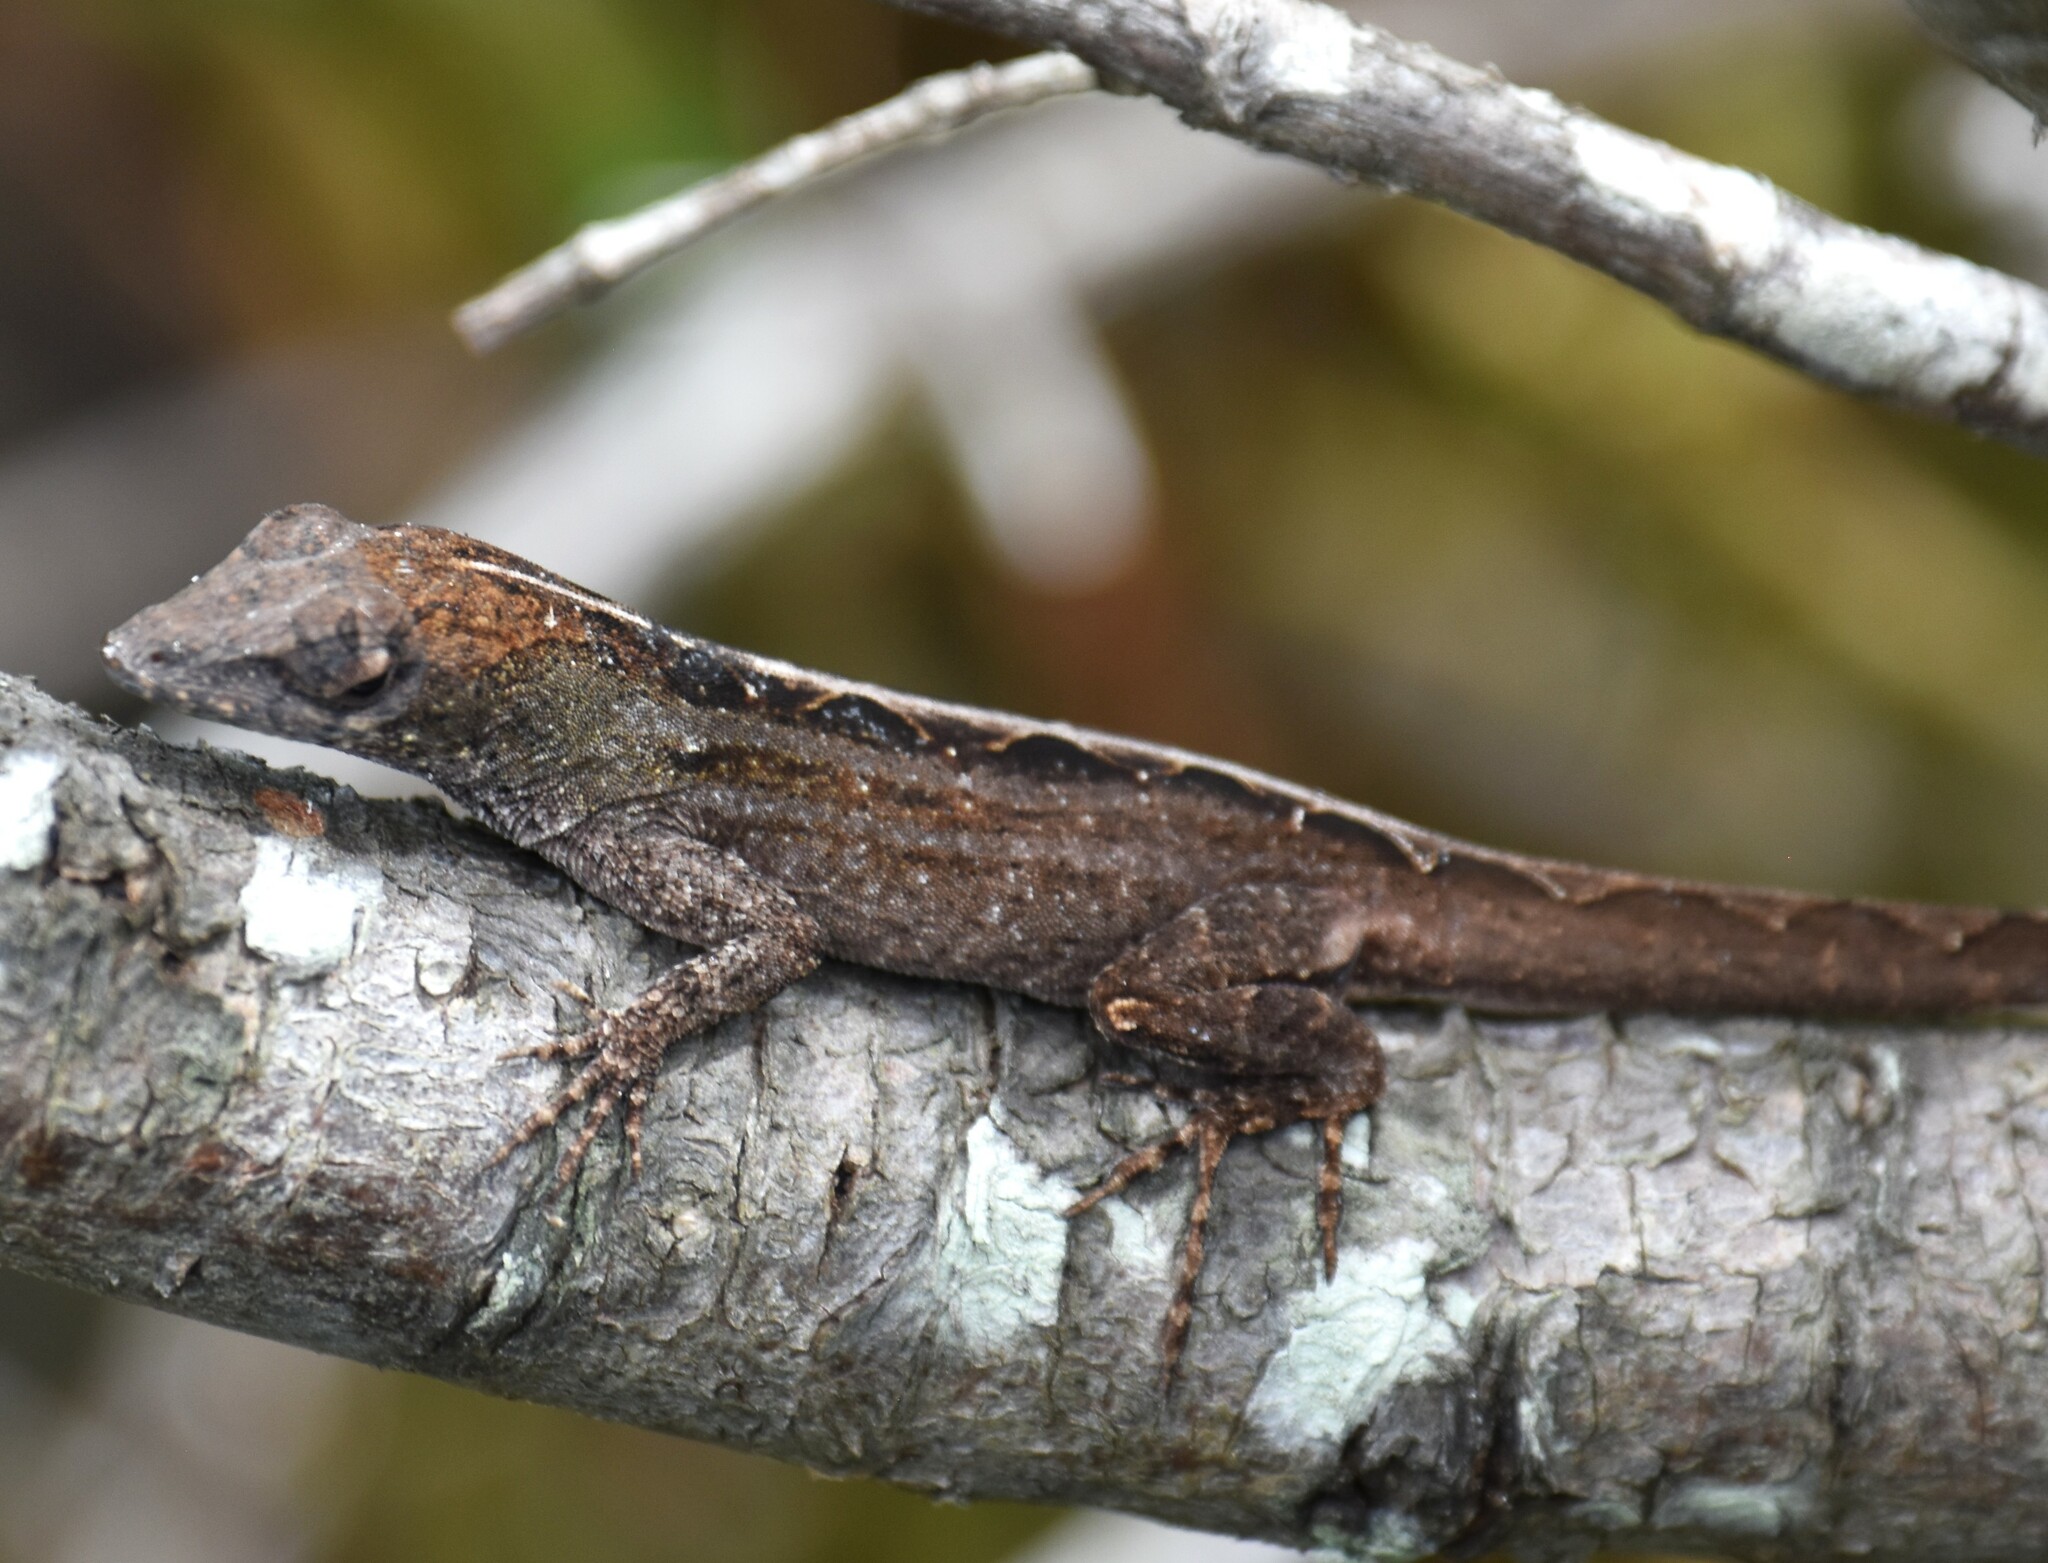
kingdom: Animalia
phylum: Chordata
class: Squamata
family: Dactyloidae
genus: Anolis
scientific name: Anolis sagrei
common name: Brown anole
